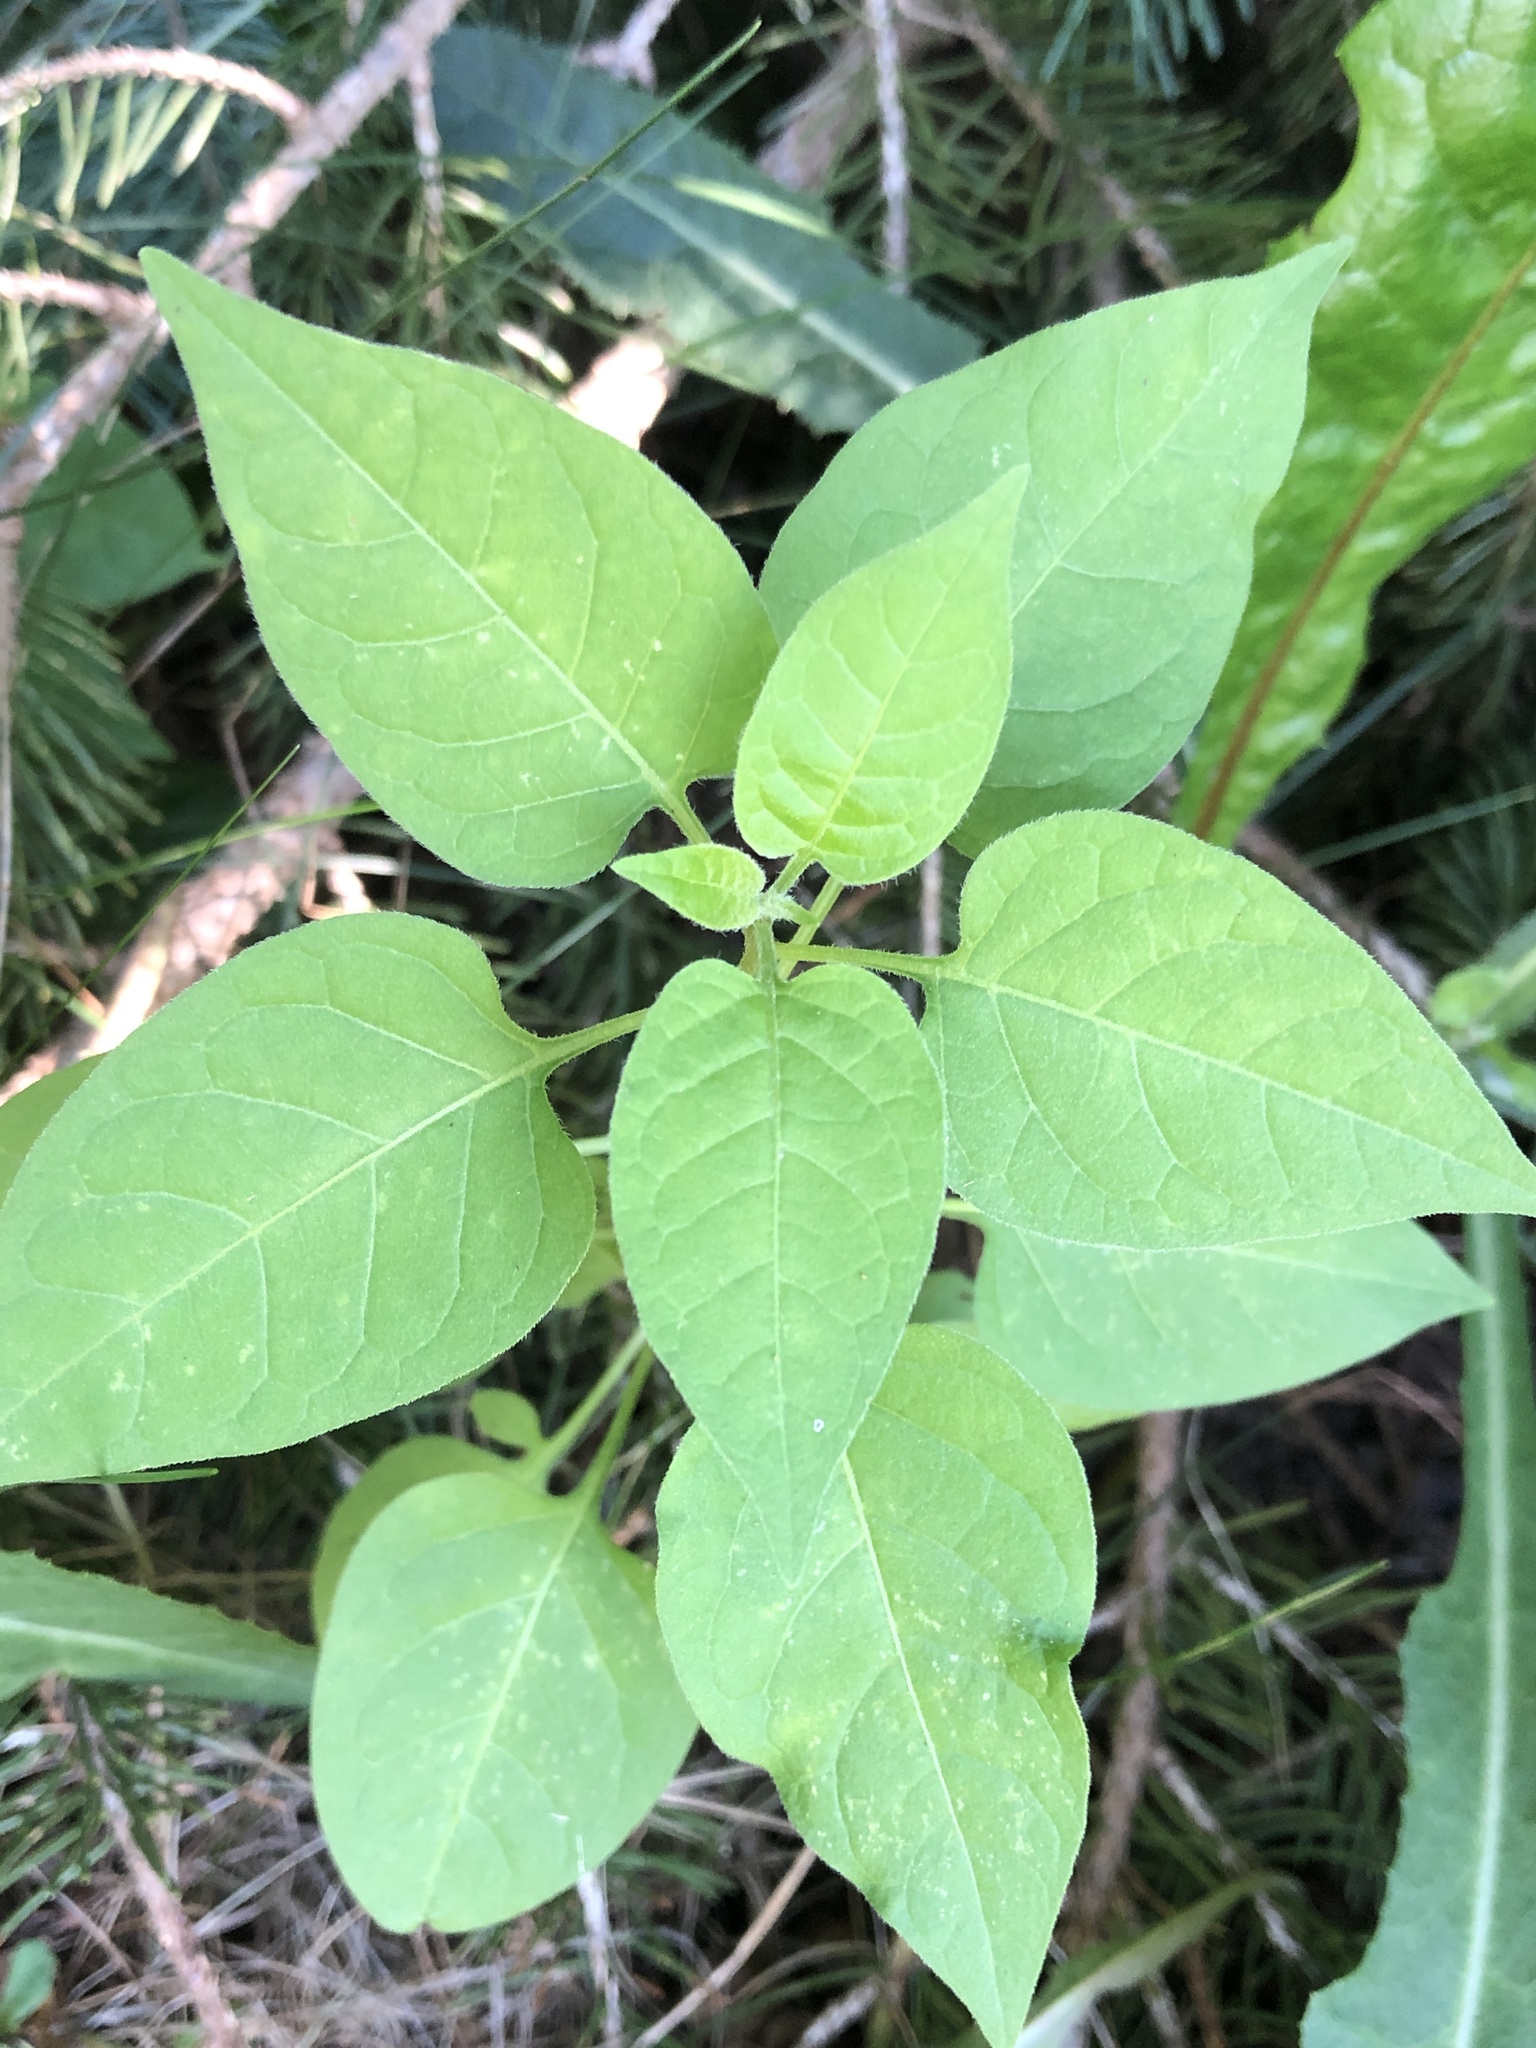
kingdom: Plantae
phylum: Tracheophyta
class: Magnoliopsida
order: Solanales
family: Solanaceae
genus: Solanum
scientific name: Solanum dulcamara
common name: Climbing nightshade
